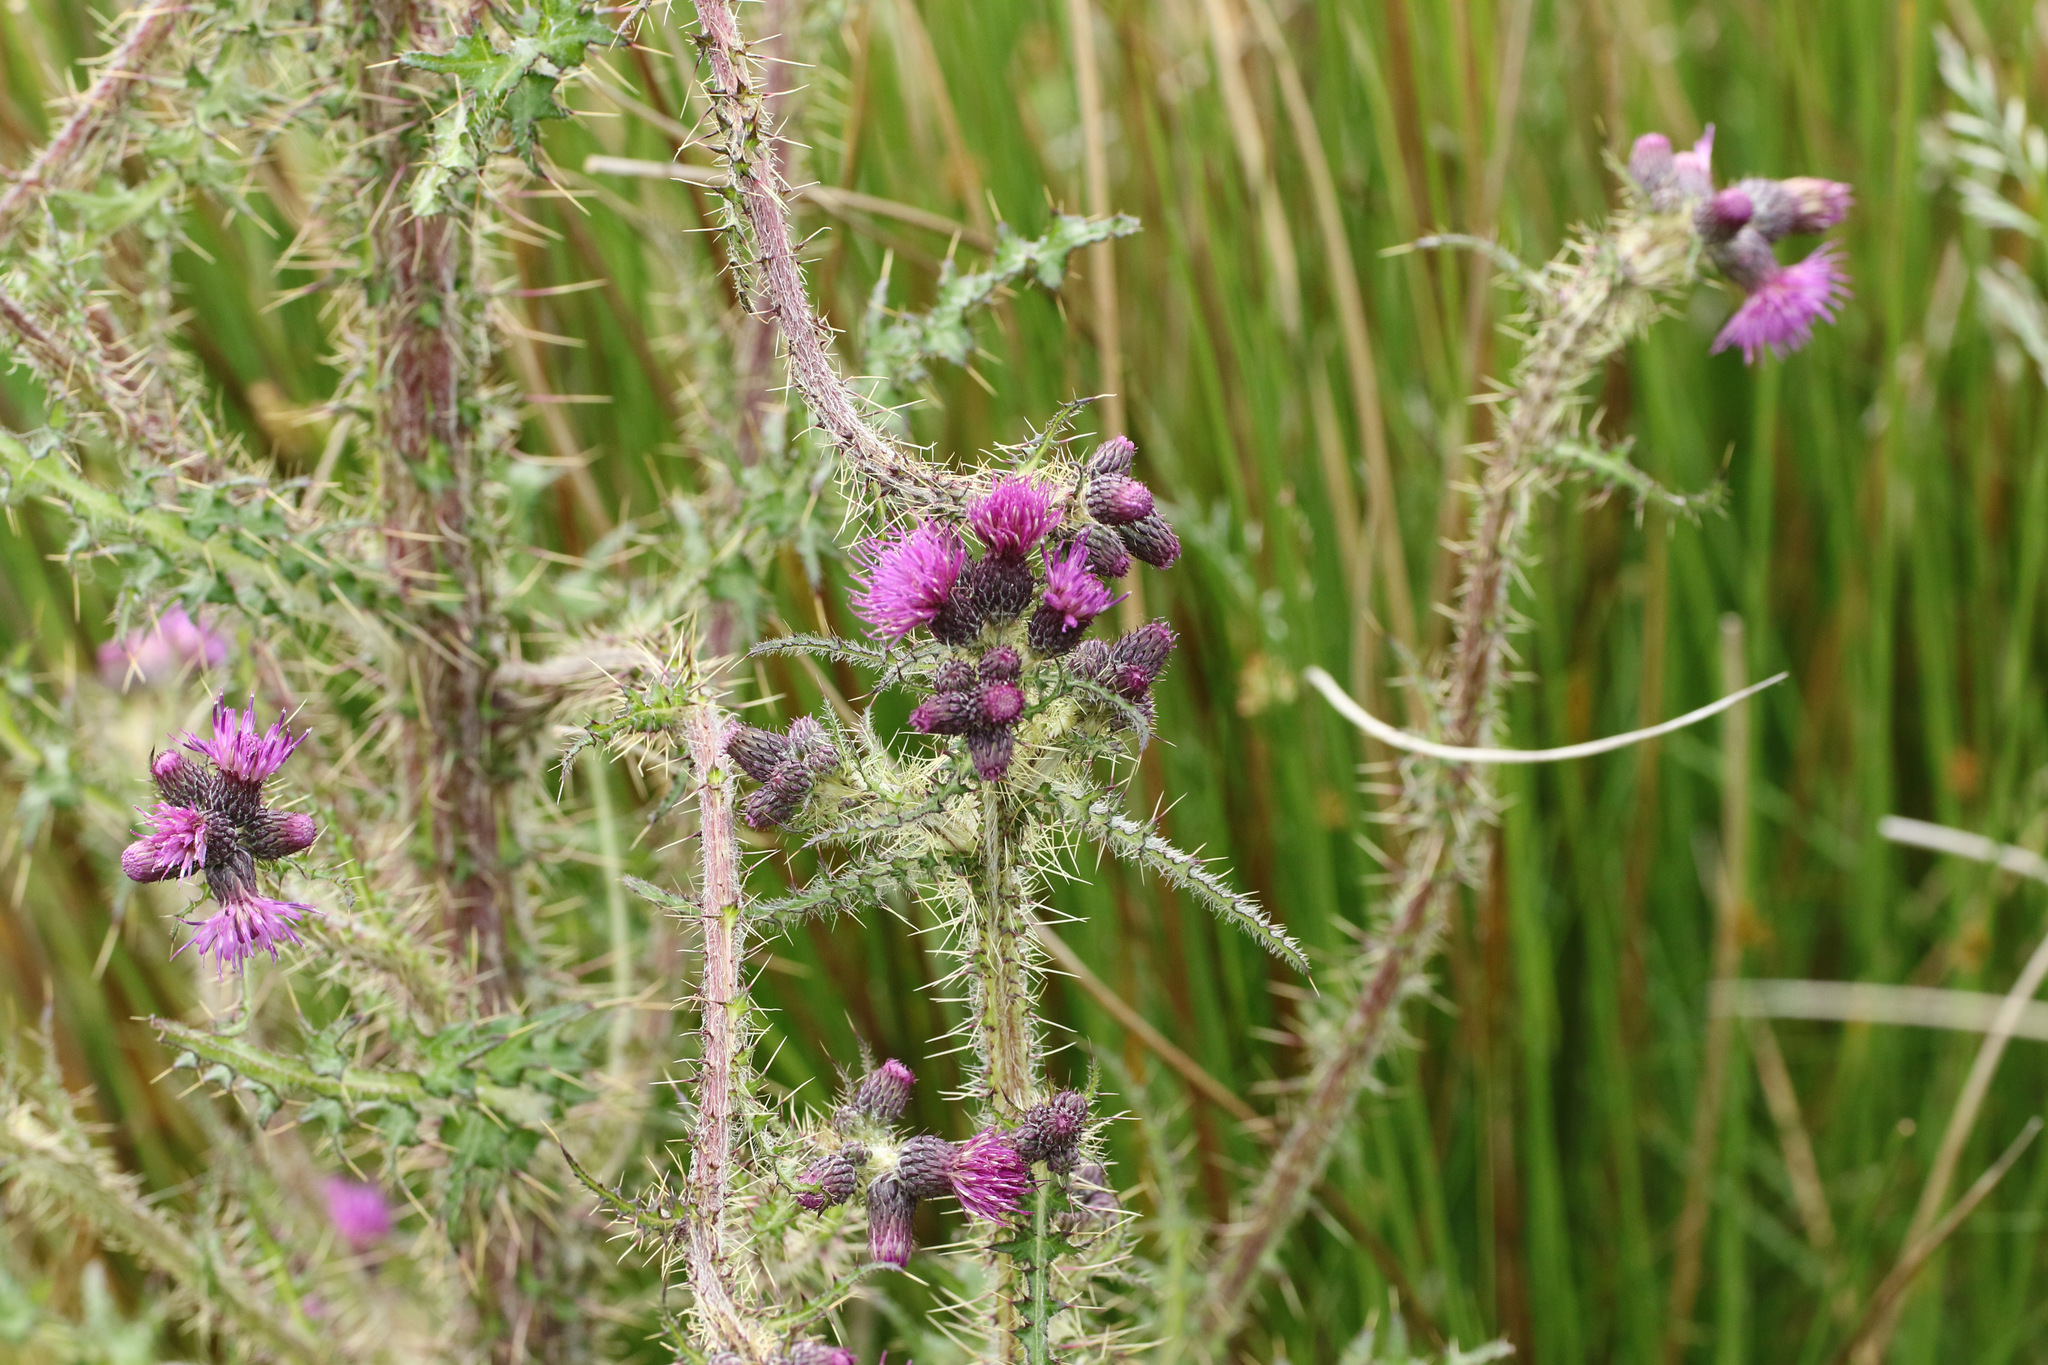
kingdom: Plantae
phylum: Tracheophyta
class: Magnoliopsida
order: Asterales
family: Asteraceae
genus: Cirsium
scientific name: Cirsium palustre
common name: Marsh thistle
